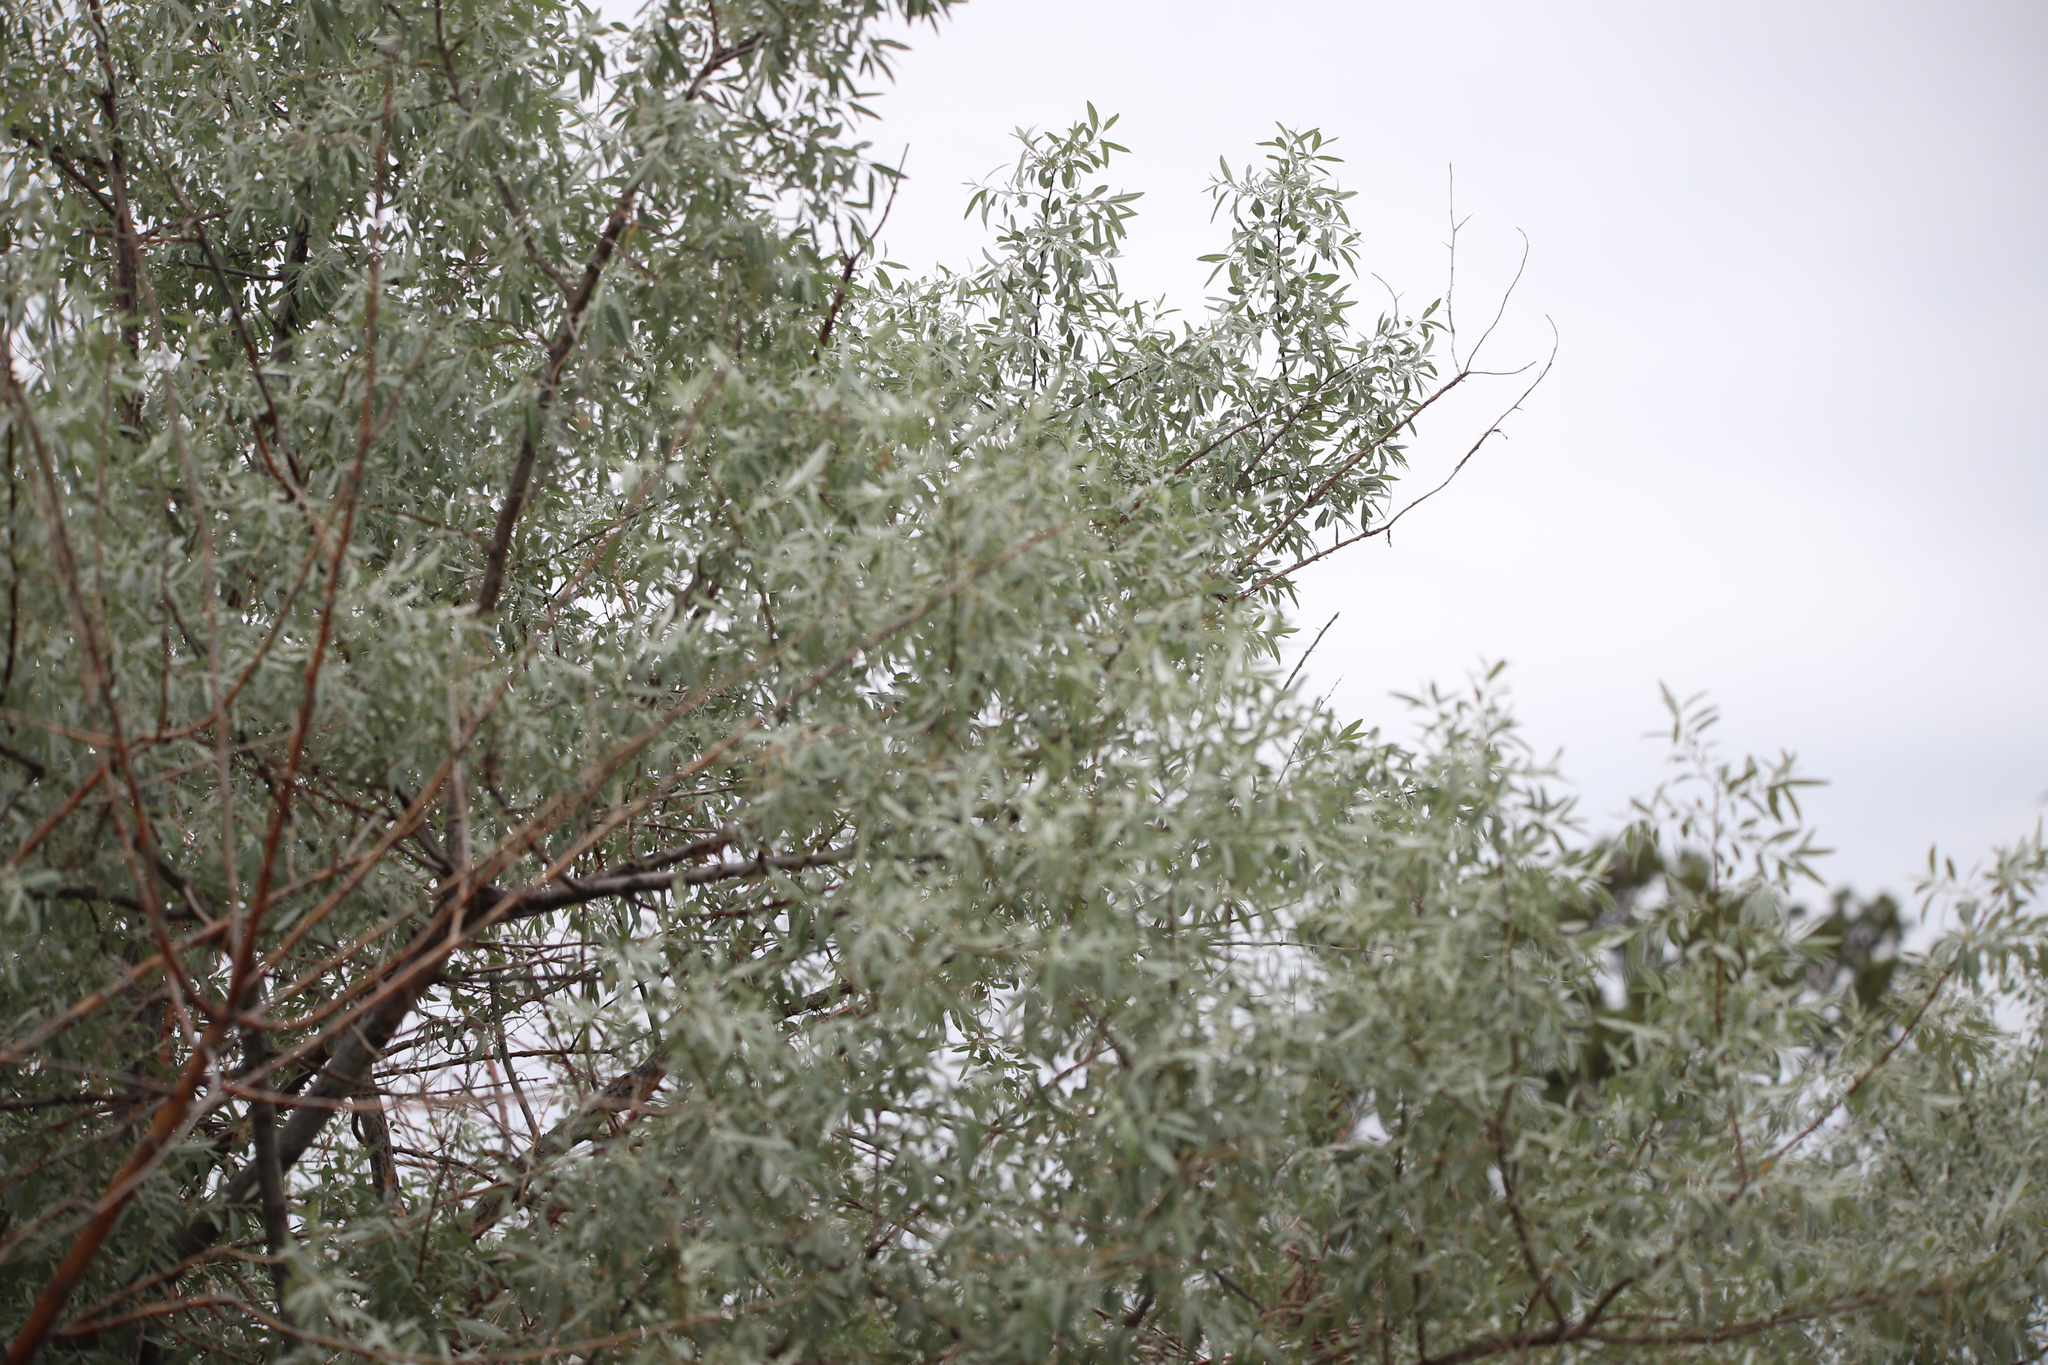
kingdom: Plantae
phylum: Tracheophyta
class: Magnoliopsida
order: Rosales
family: Elaeagnaceae
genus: Elaeagnus
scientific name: Elaeagnus angustifolia
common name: Russian olive
